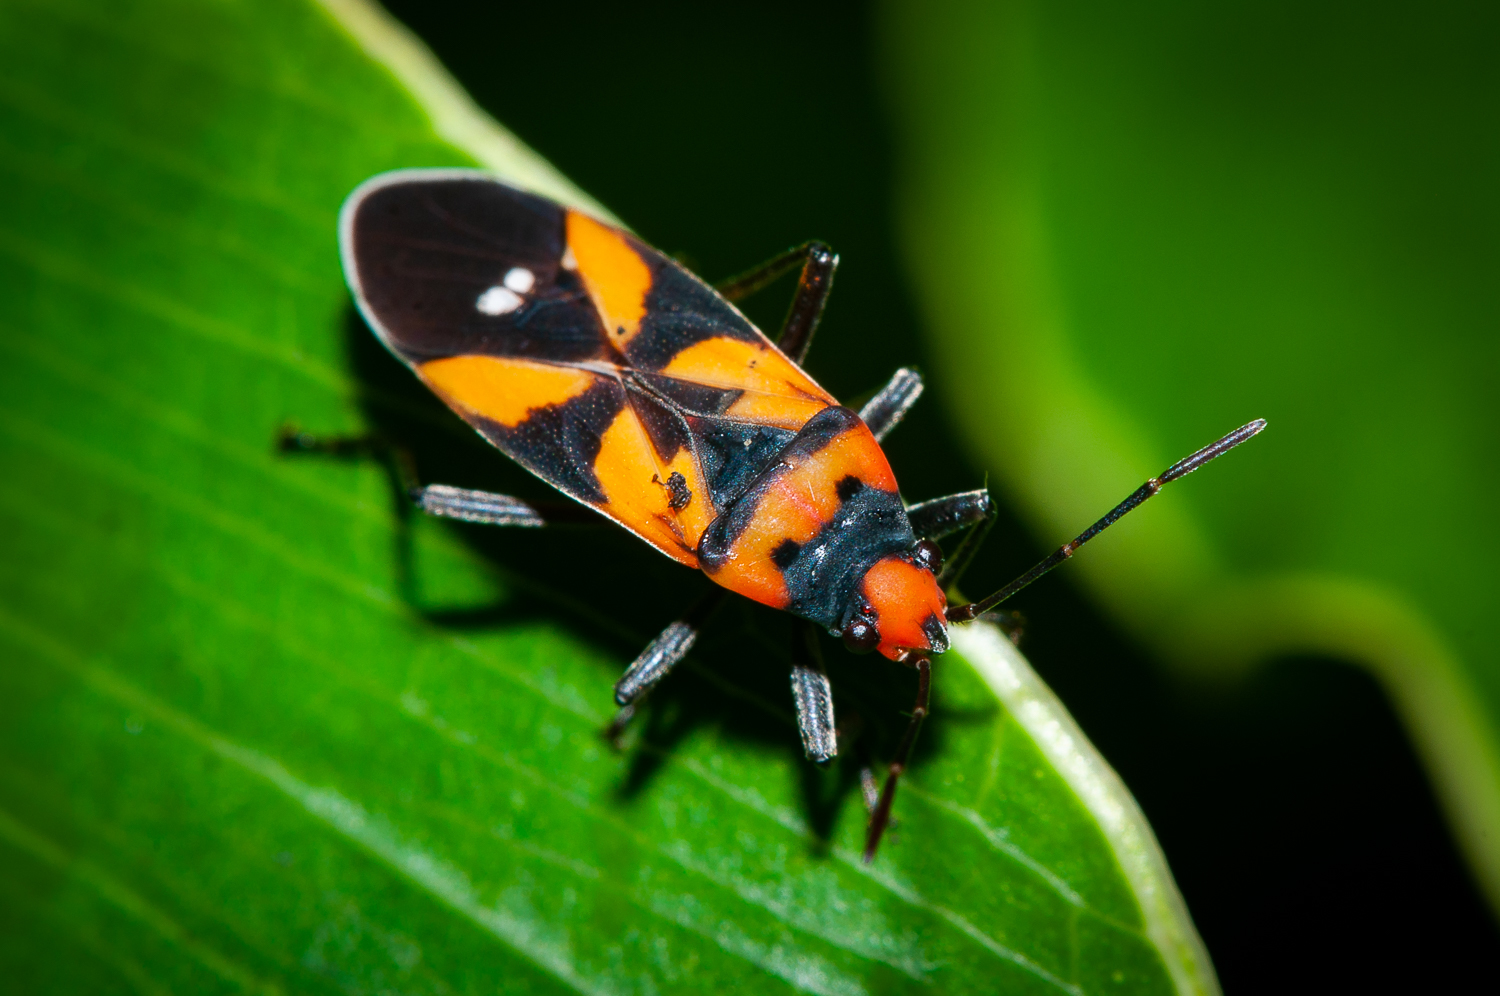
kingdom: Animalia
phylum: Arthropoda
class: Insecta
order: Hemiptera
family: Lygaeidae
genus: Lygaeus
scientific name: Lygaeus analis
